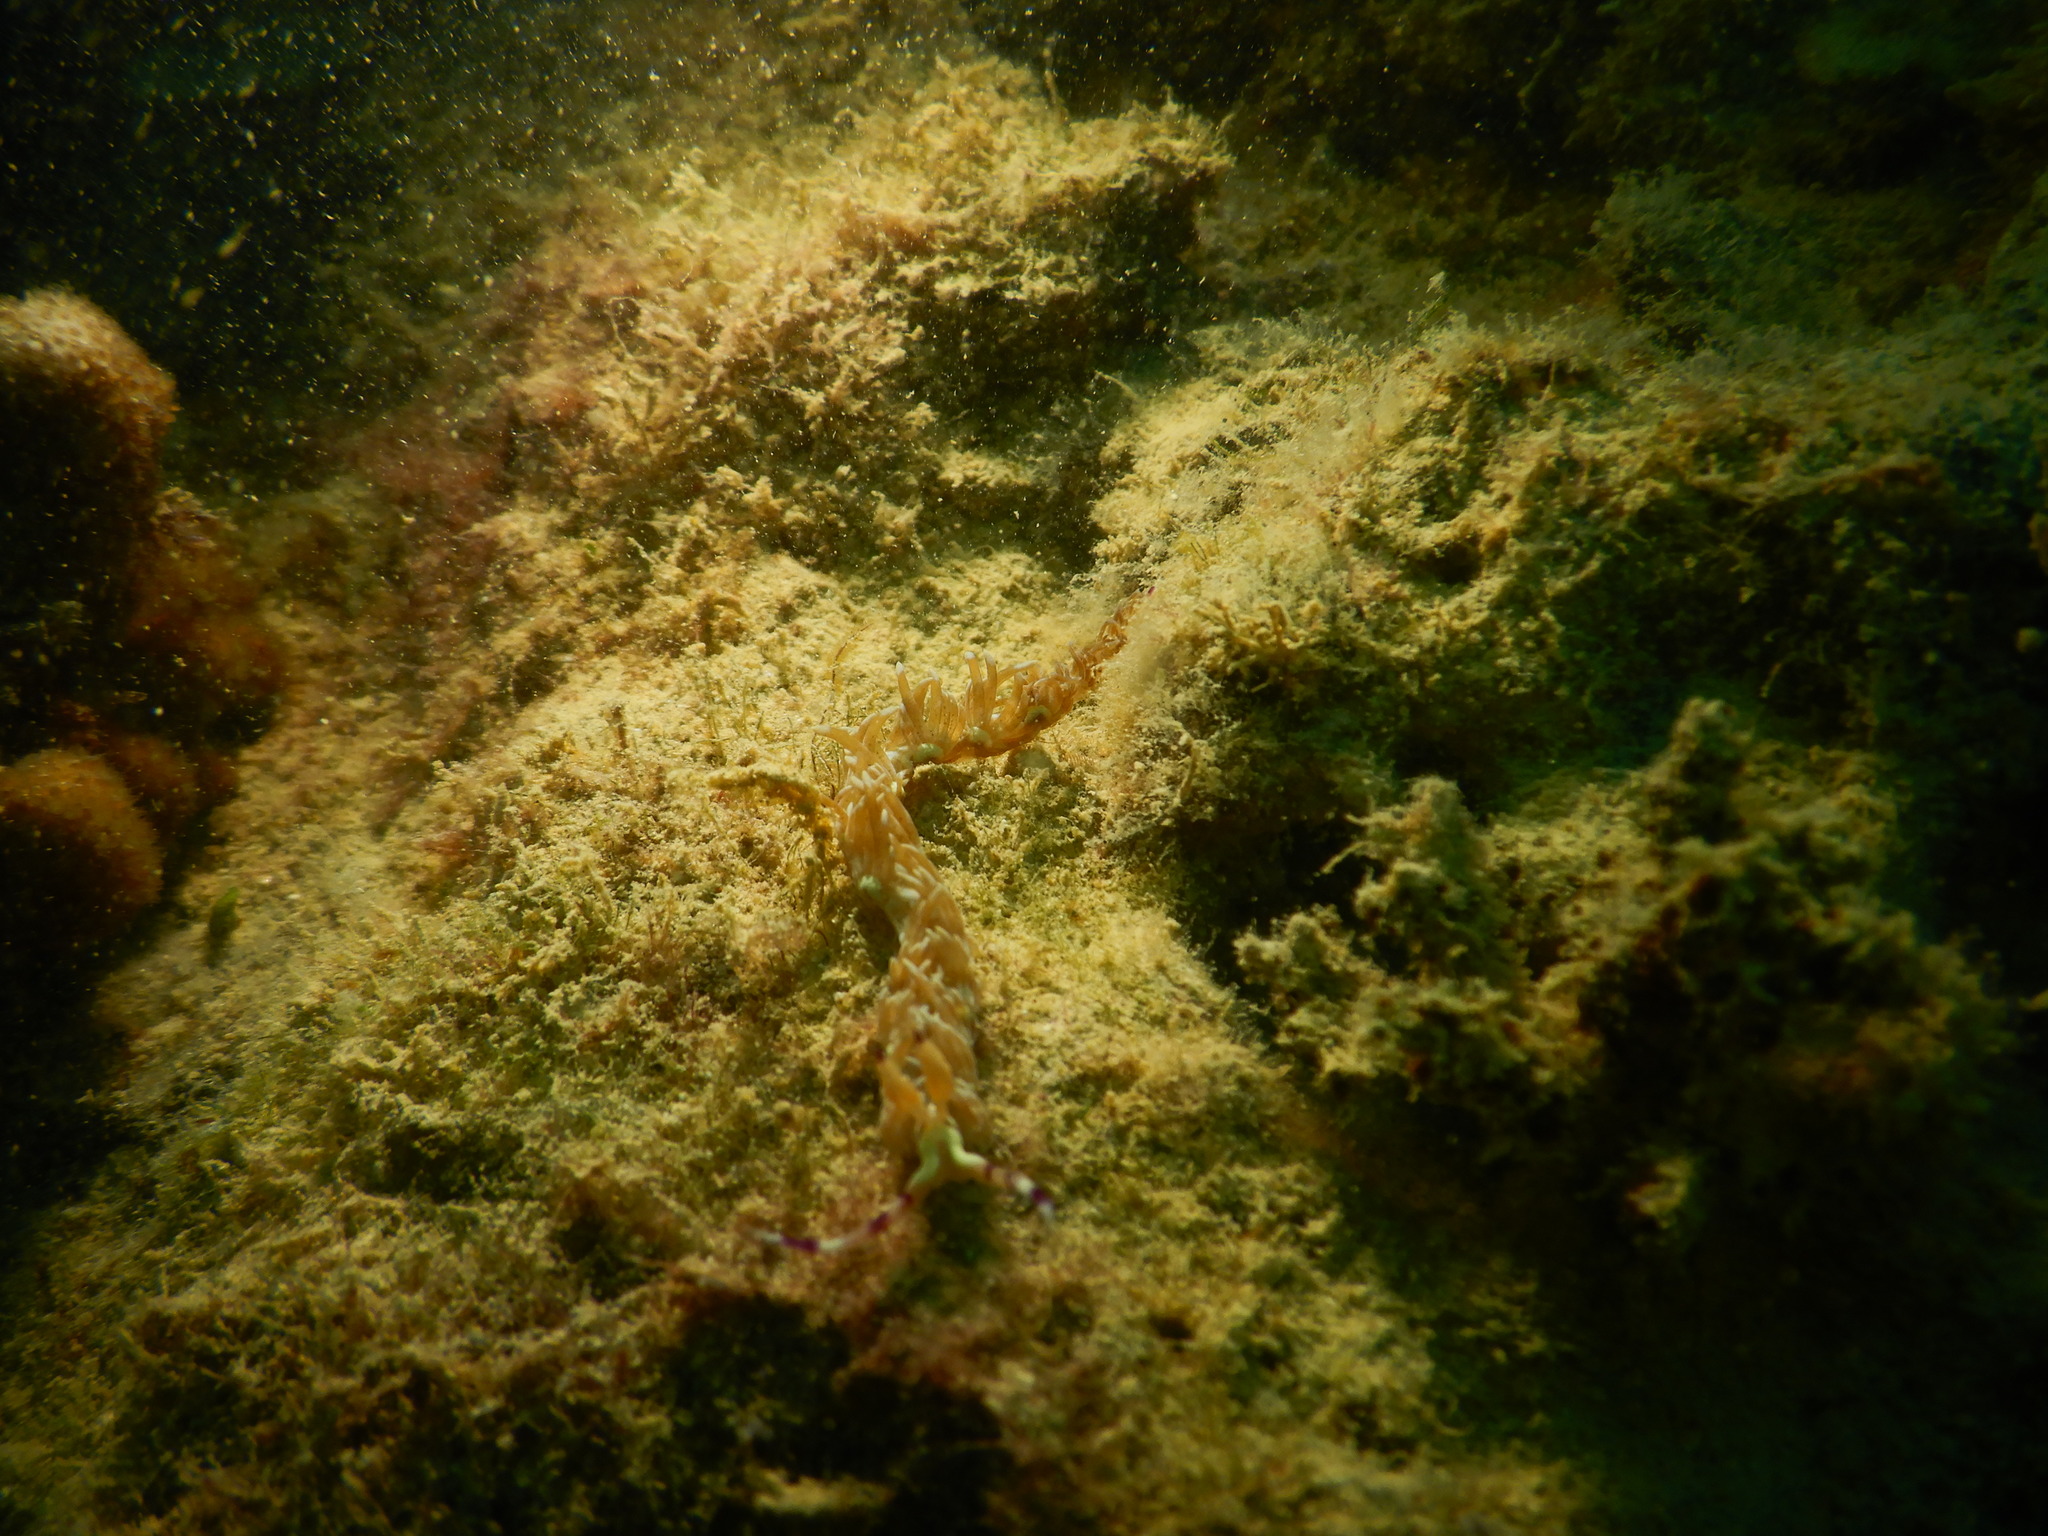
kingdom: Animalia
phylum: Mollusca
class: Gastropoda
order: Nudibranchia
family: Facelinidae
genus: Pteraeolidia
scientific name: Pteraeolidia semperi
